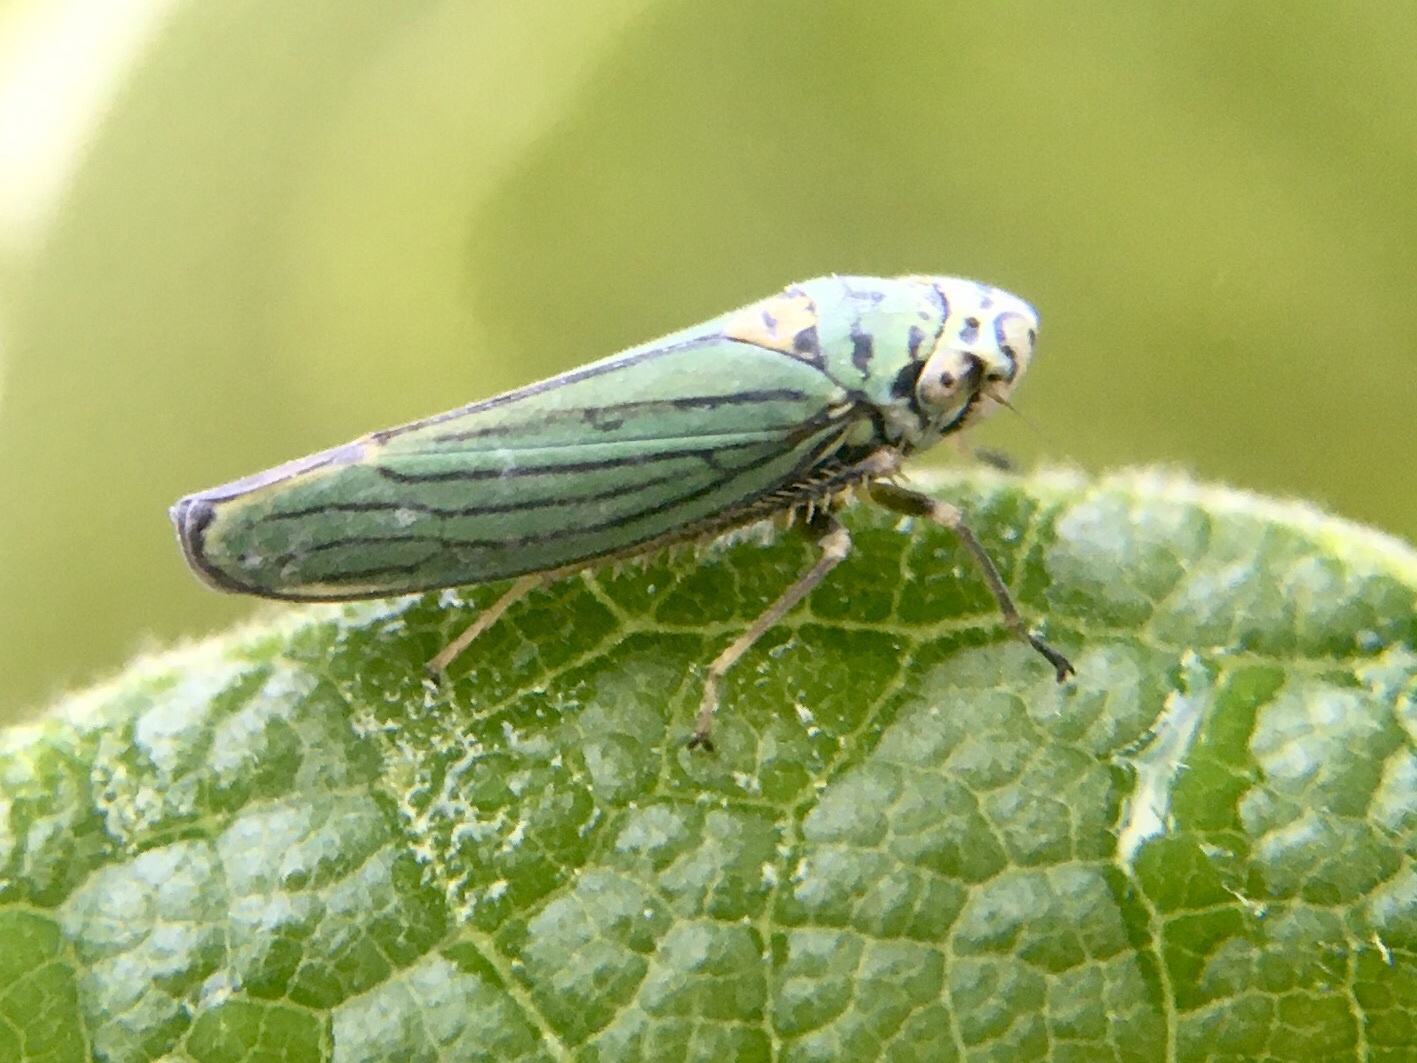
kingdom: Animalia
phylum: Arthropoda
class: Insecta
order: Hemiptera
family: Cicadellidae
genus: Graphocephala
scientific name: Graphocephala atropunctata
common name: Blue-green sharpshooter
